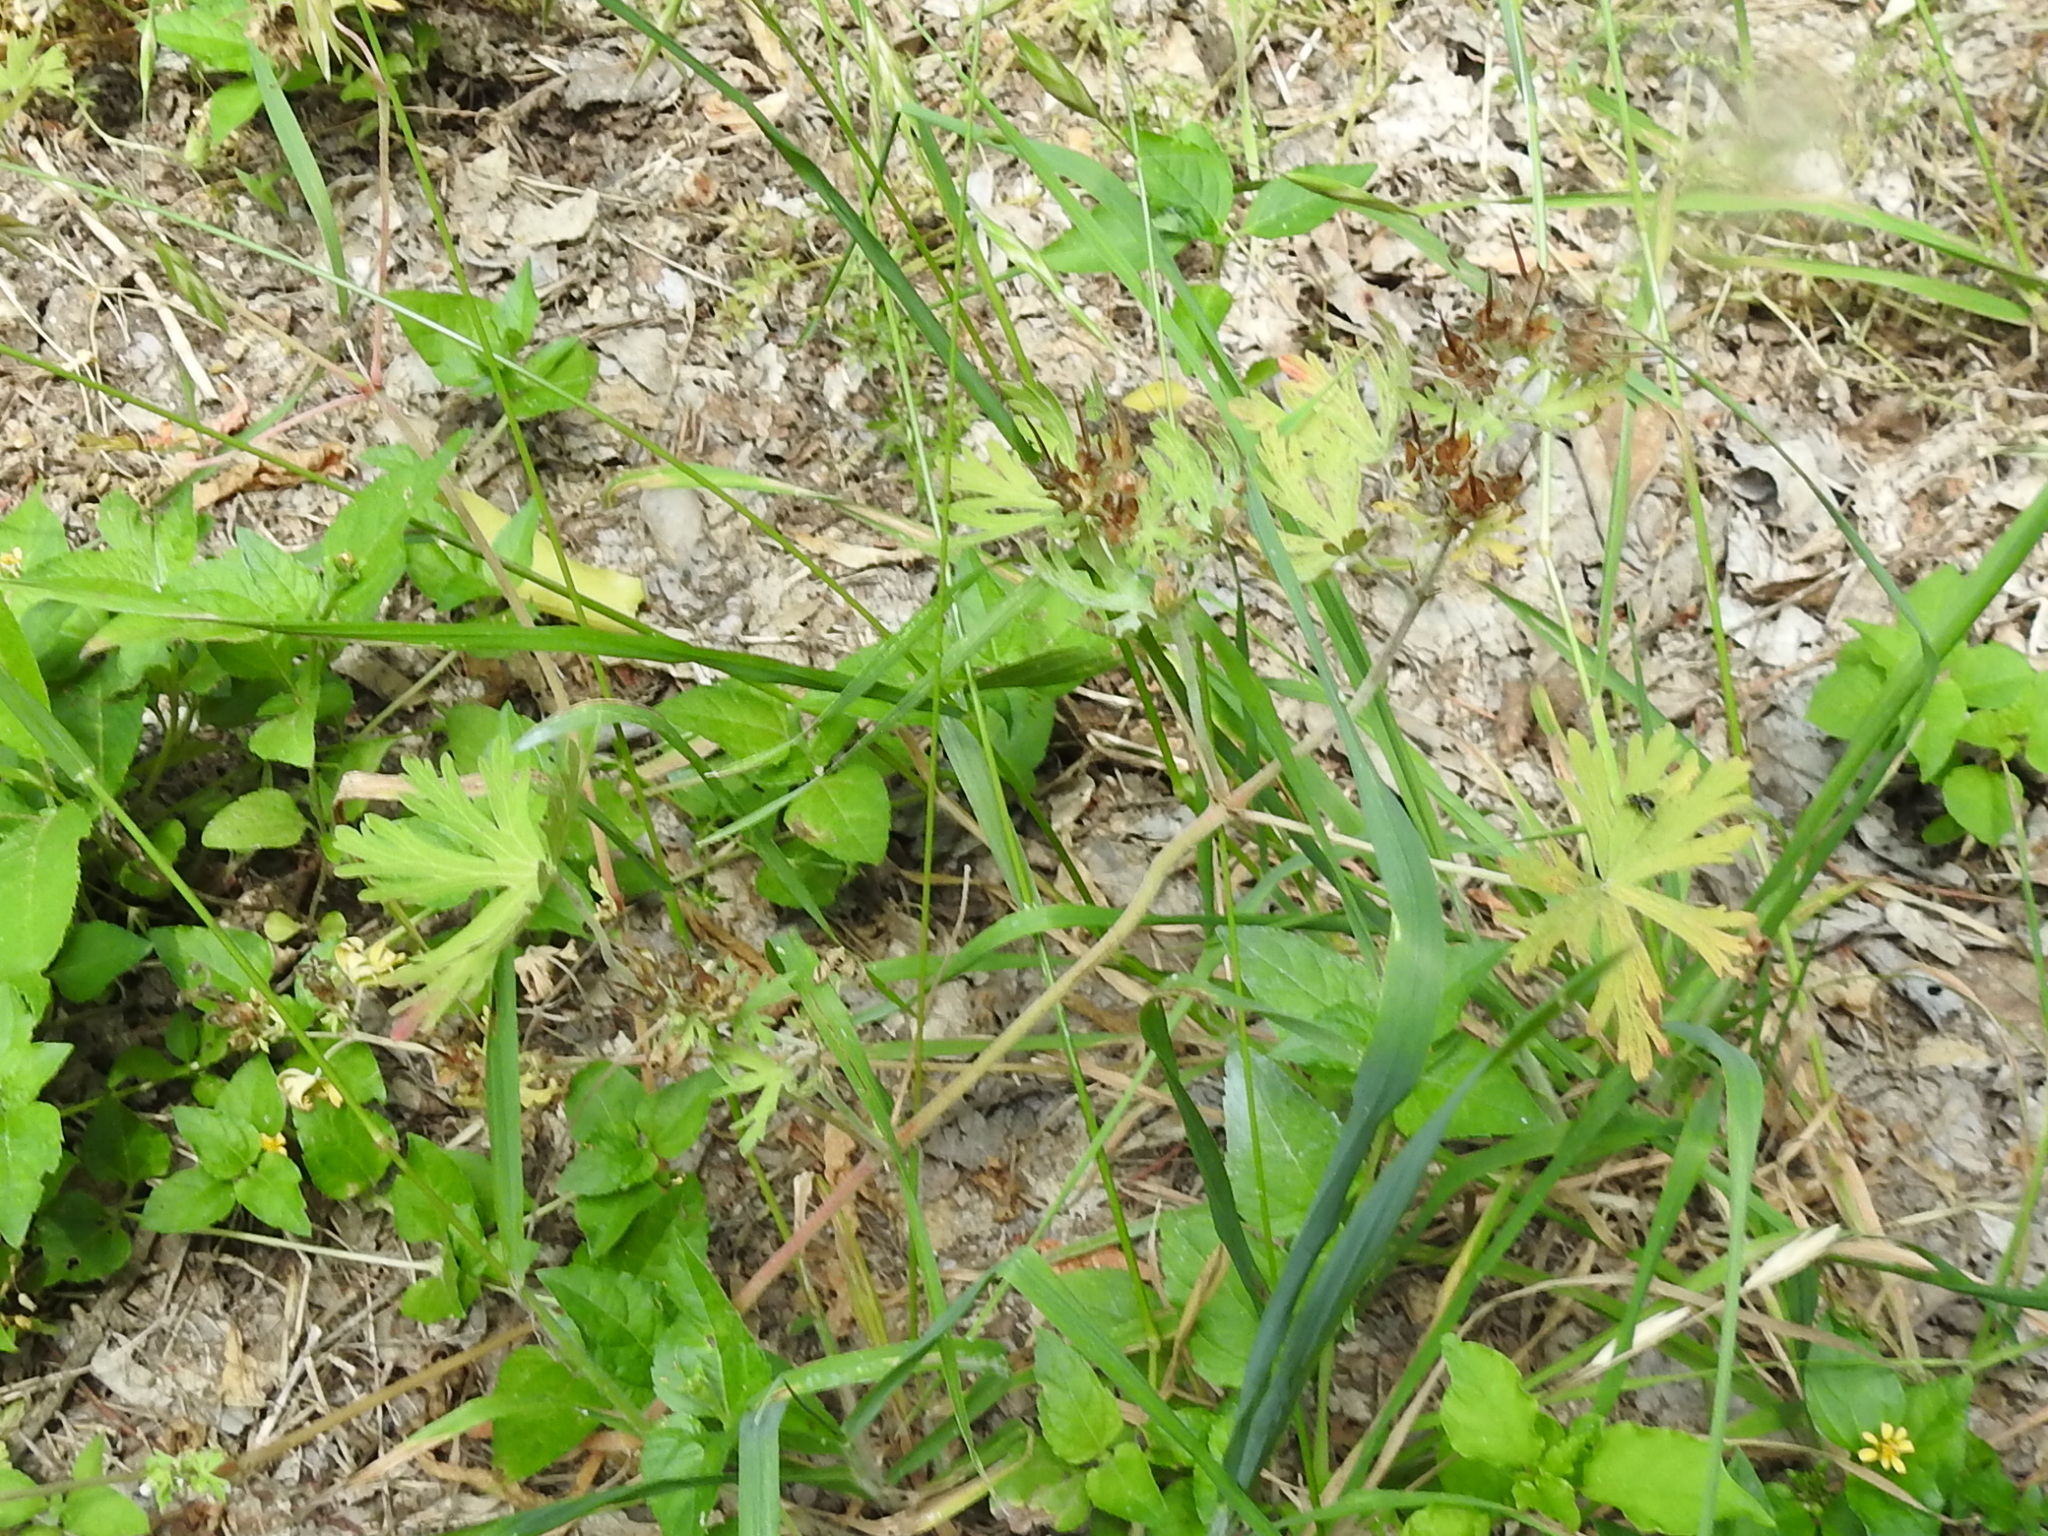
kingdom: Plantae
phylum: Tracheophyta
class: Magnoliopsida
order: Geraniales
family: Geraniaceae
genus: Geranium
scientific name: Geranium carolinianum
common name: Carolina crane's-bill
